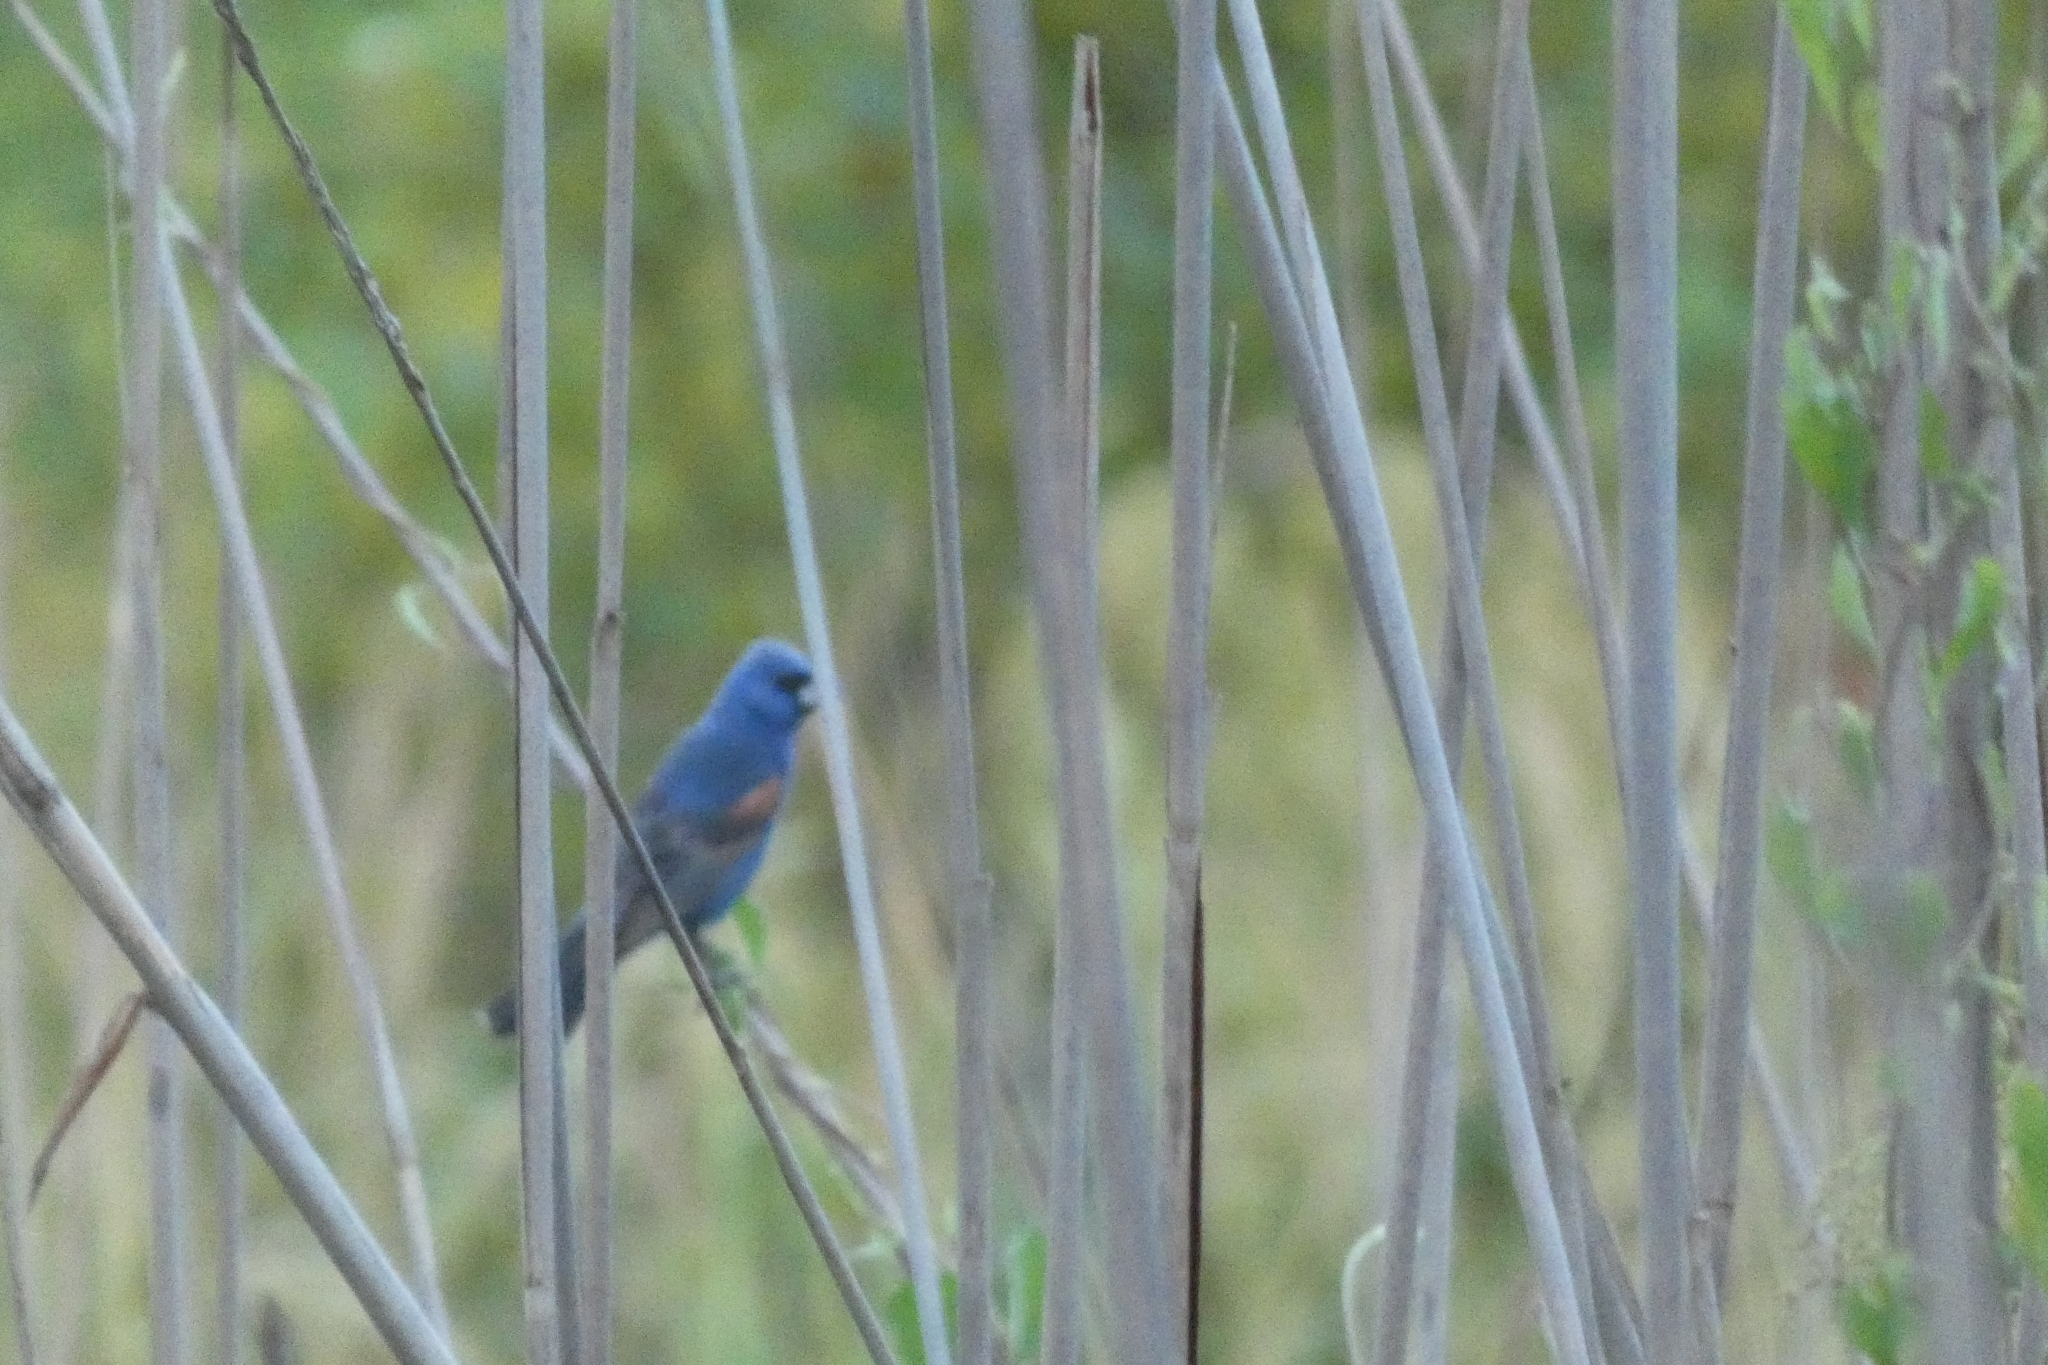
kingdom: Animalia
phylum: Chordata
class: Aves
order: Passeriformes
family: Cardinalidae
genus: Passerina
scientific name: Passerina caerulea
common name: Blue grosbeak
